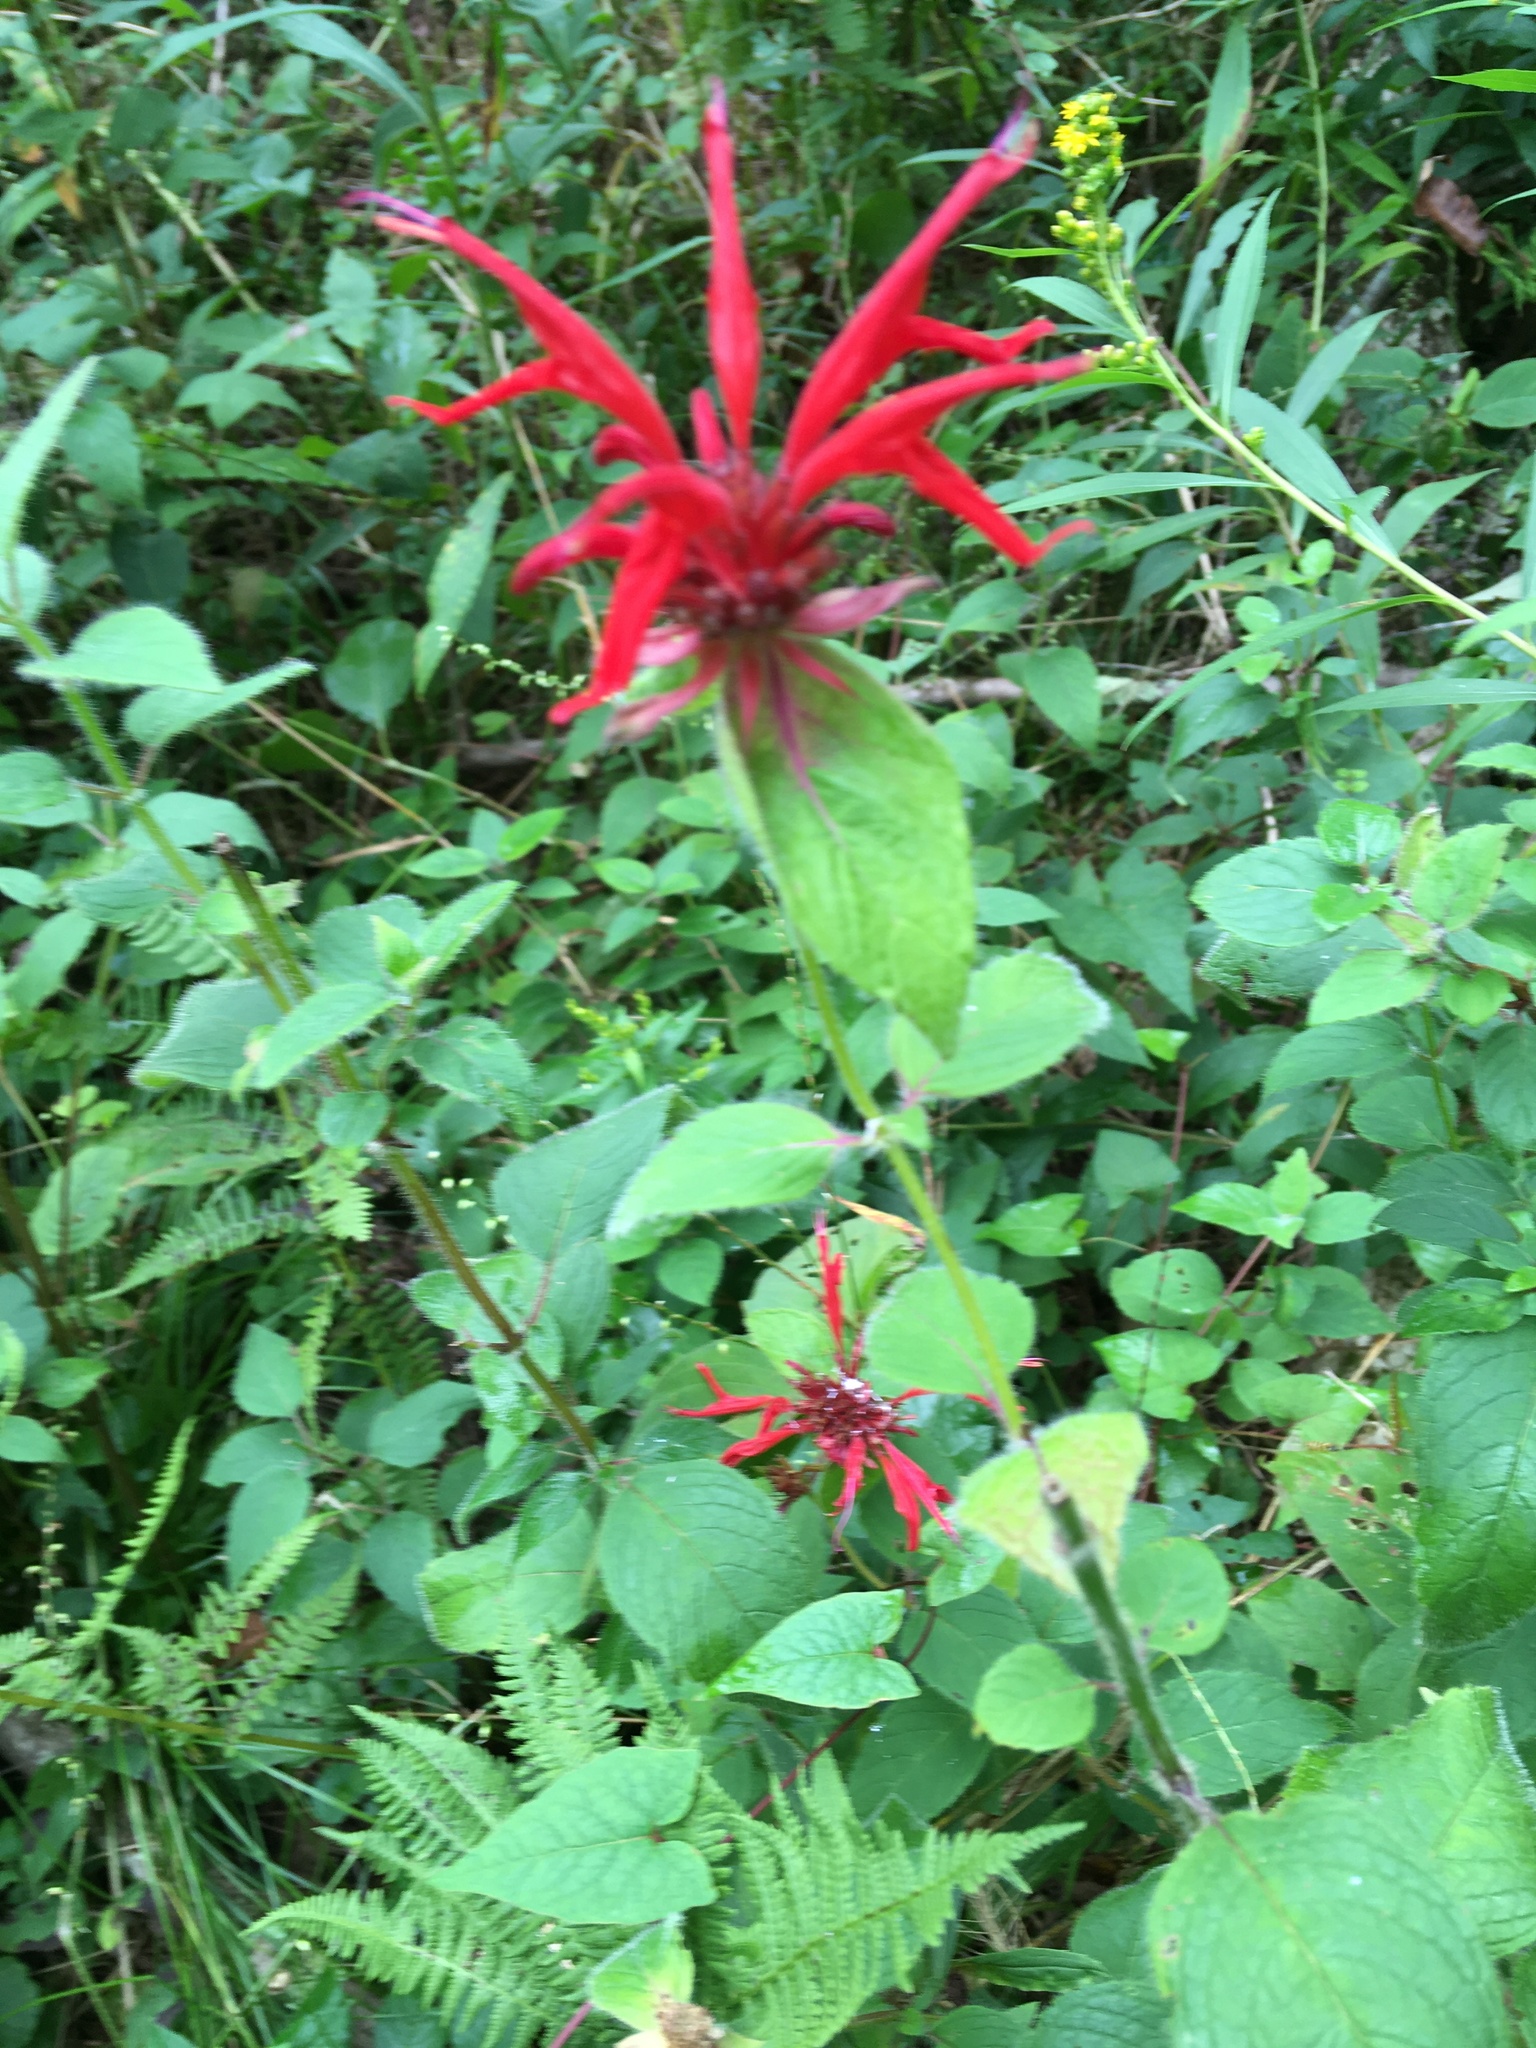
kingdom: Plantae
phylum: Tracheophyta
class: Magnoliopsida
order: Lamiales
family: Lamiaceae
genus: Monarda
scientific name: Monarda didyma
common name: Beebalm
